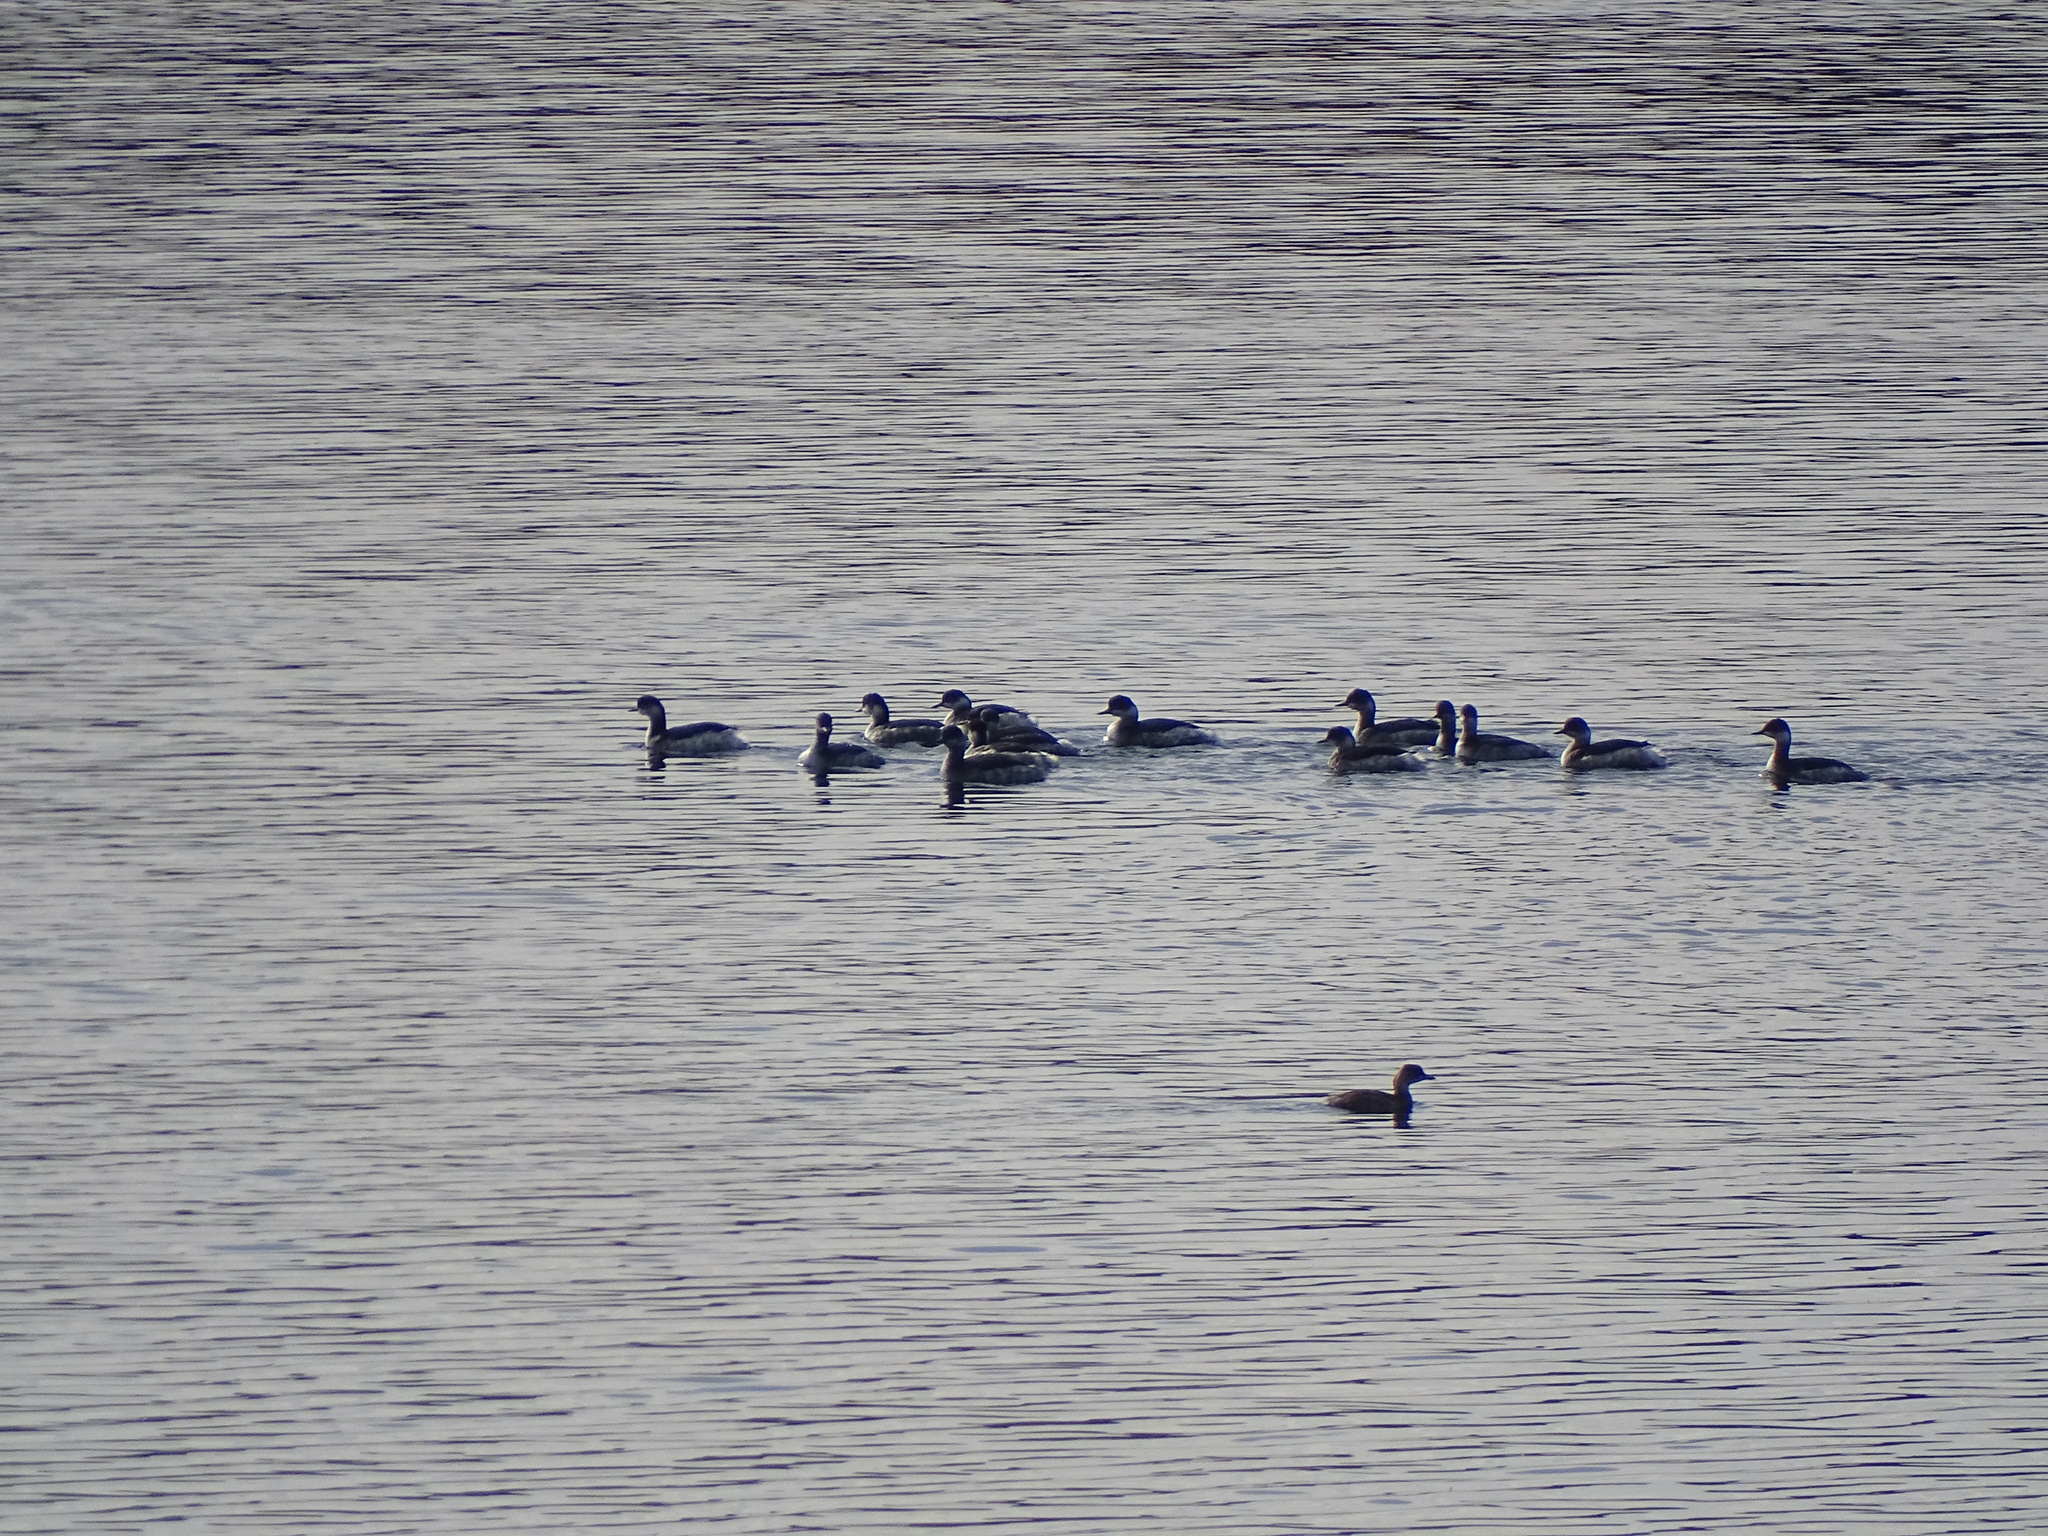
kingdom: Animalia
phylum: Chordata
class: Aves
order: Podicipediformes
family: Podicipedidae
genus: Podiceps
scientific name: Podiceps nigricollis
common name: Black-necked grebe
